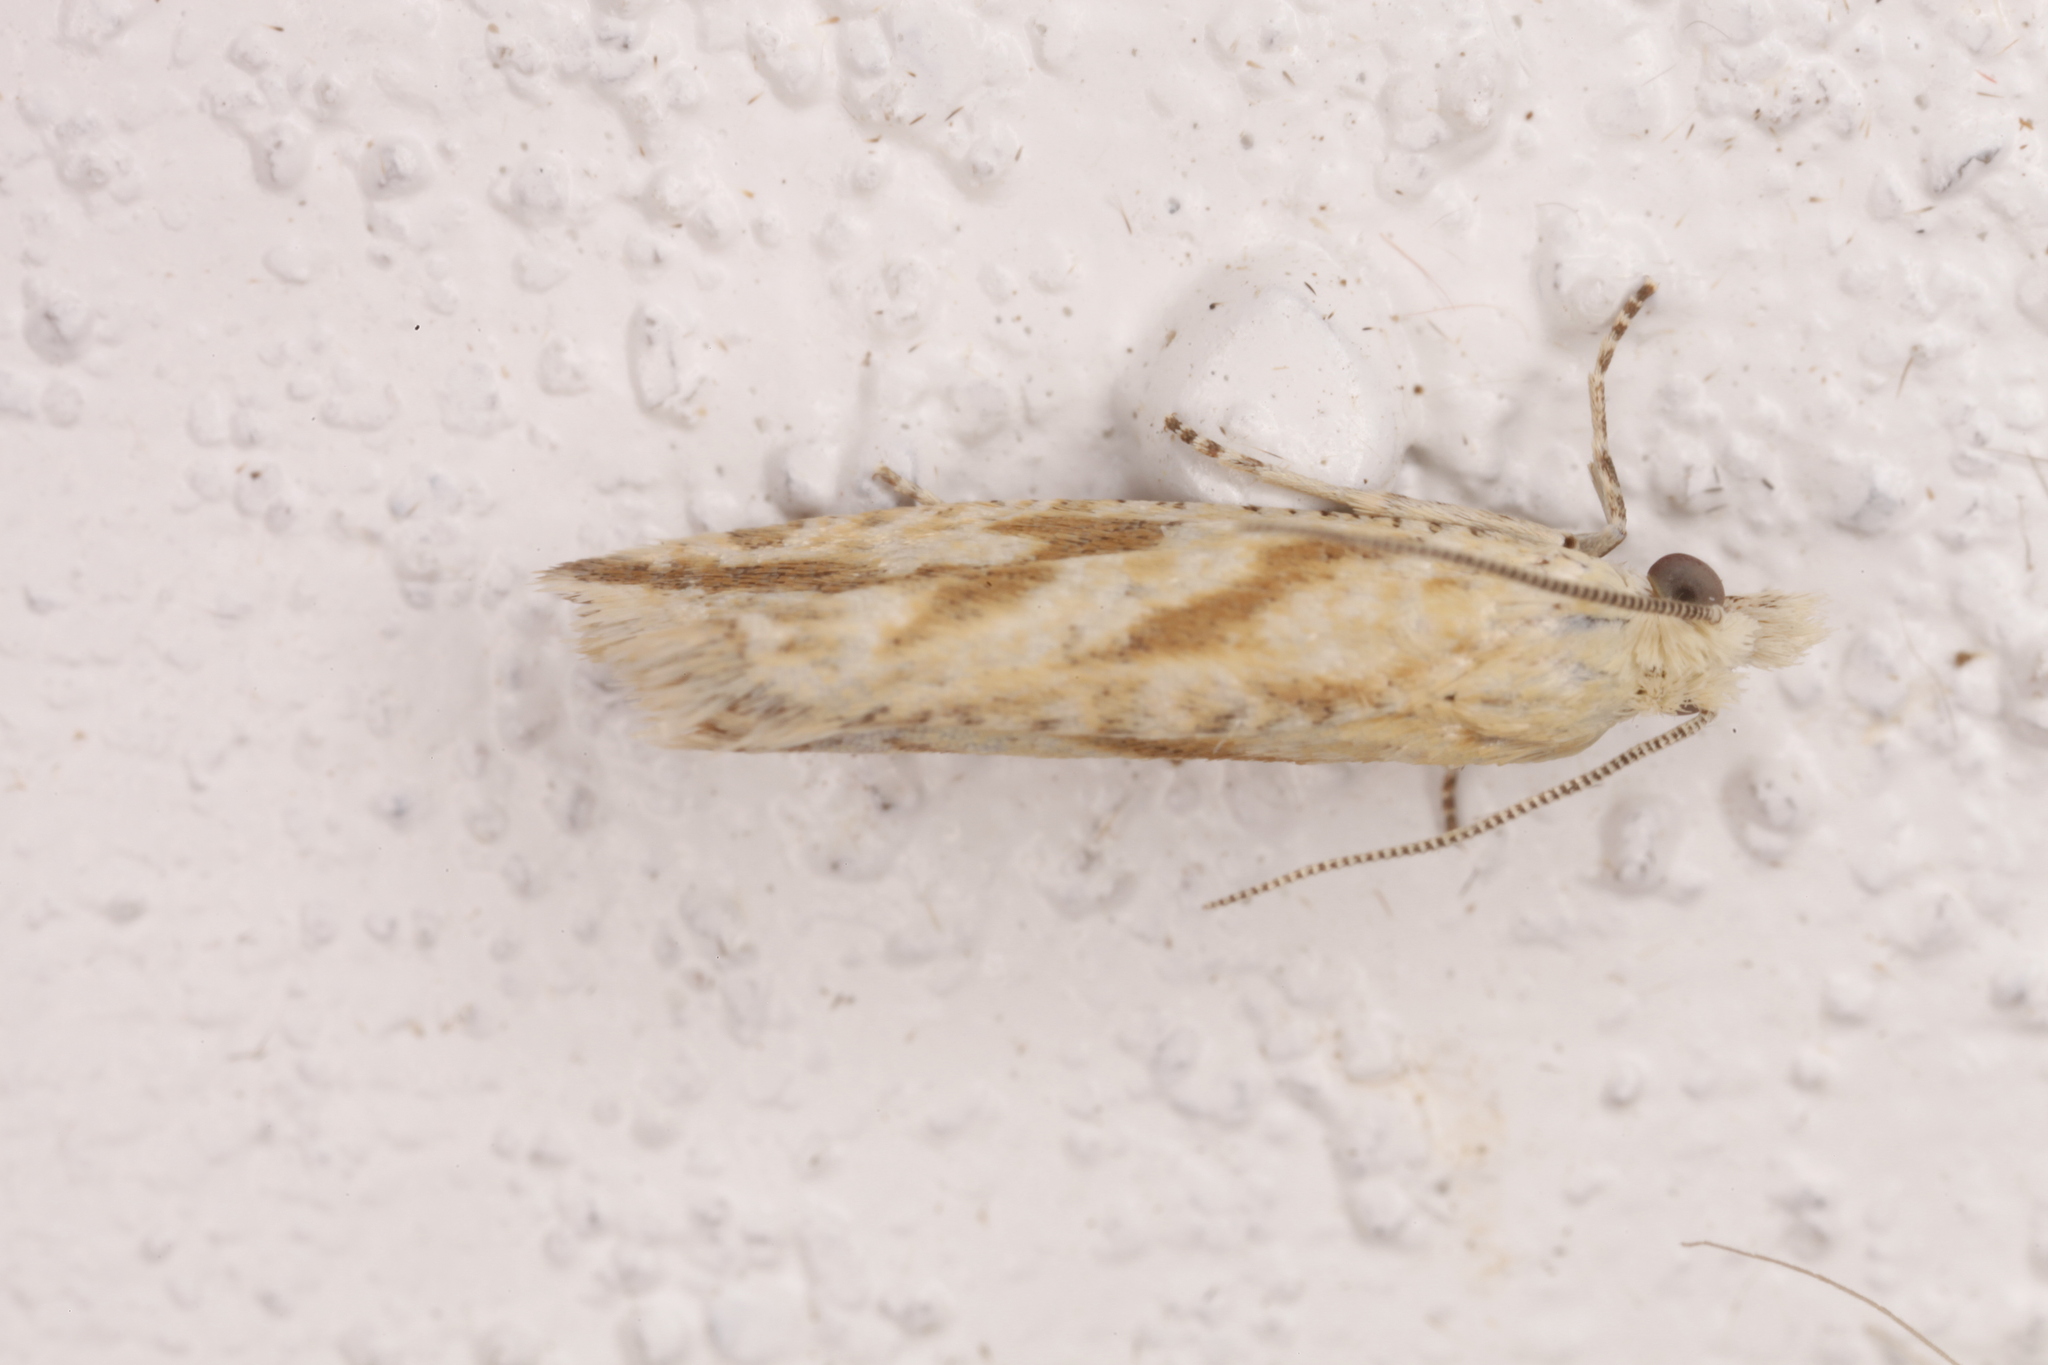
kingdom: Animalia
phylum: Arthropoda
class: Insecta
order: Lepidoptera
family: Tortricidae
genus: Thiodia
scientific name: Thiodia citrana
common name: Lemon bell
